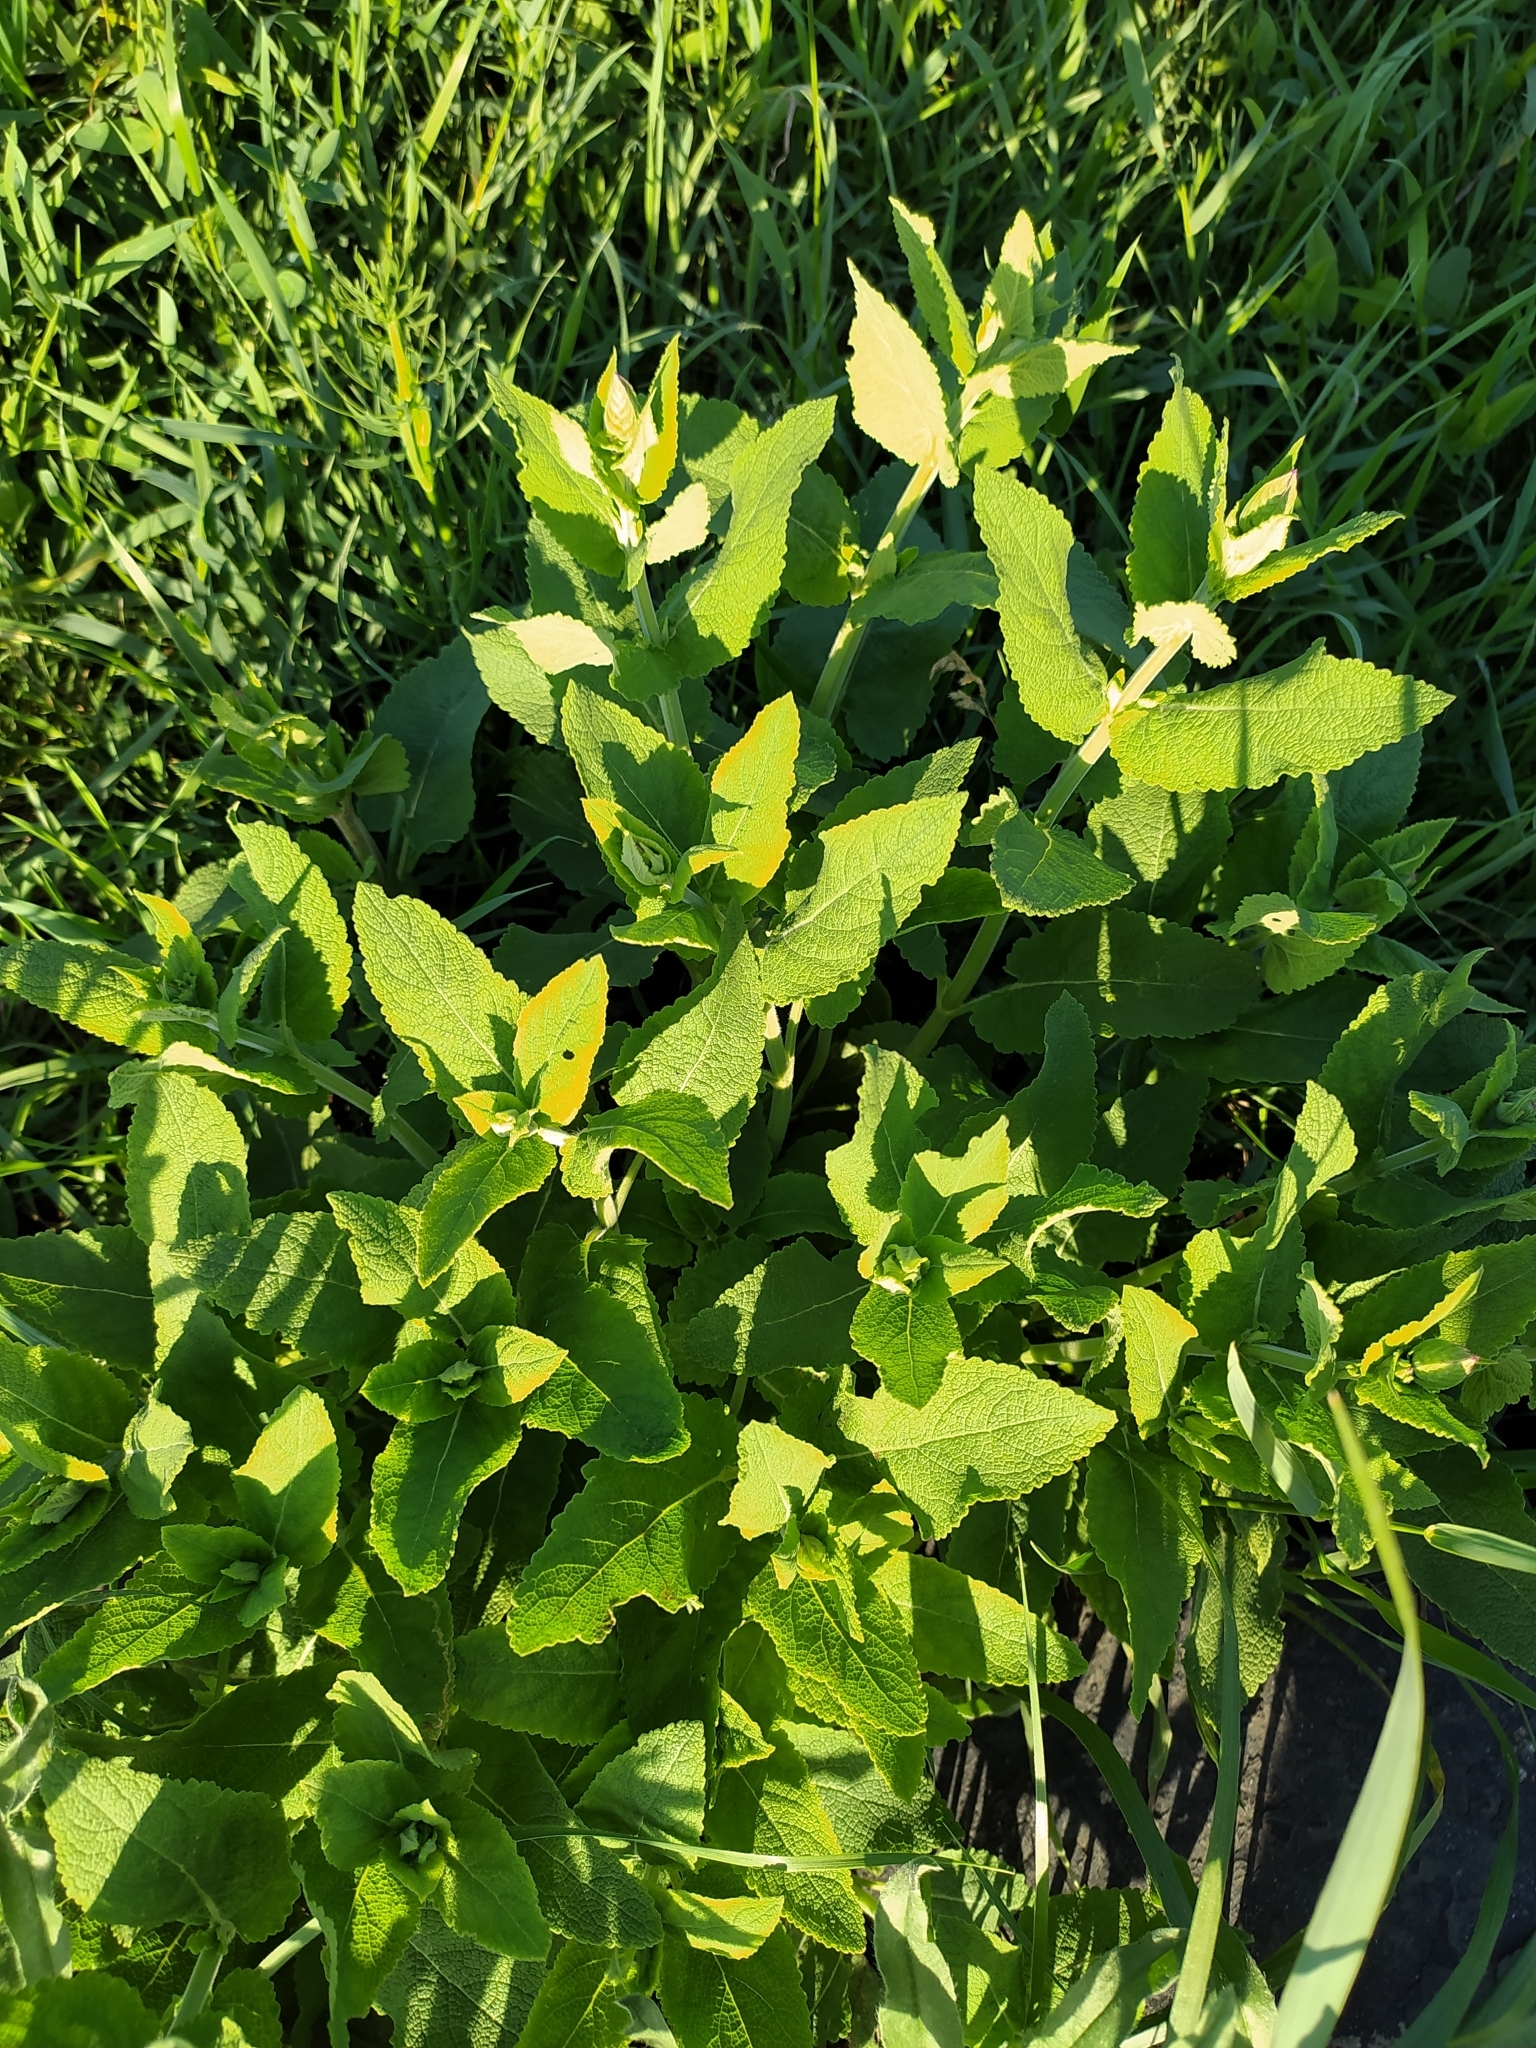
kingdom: Plantae
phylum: Tracheophyta
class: Magnoliopsida
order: Lamiales
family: Lamiaceae
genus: Salvia
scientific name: Salvia nemorosa
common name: Balkan clary
